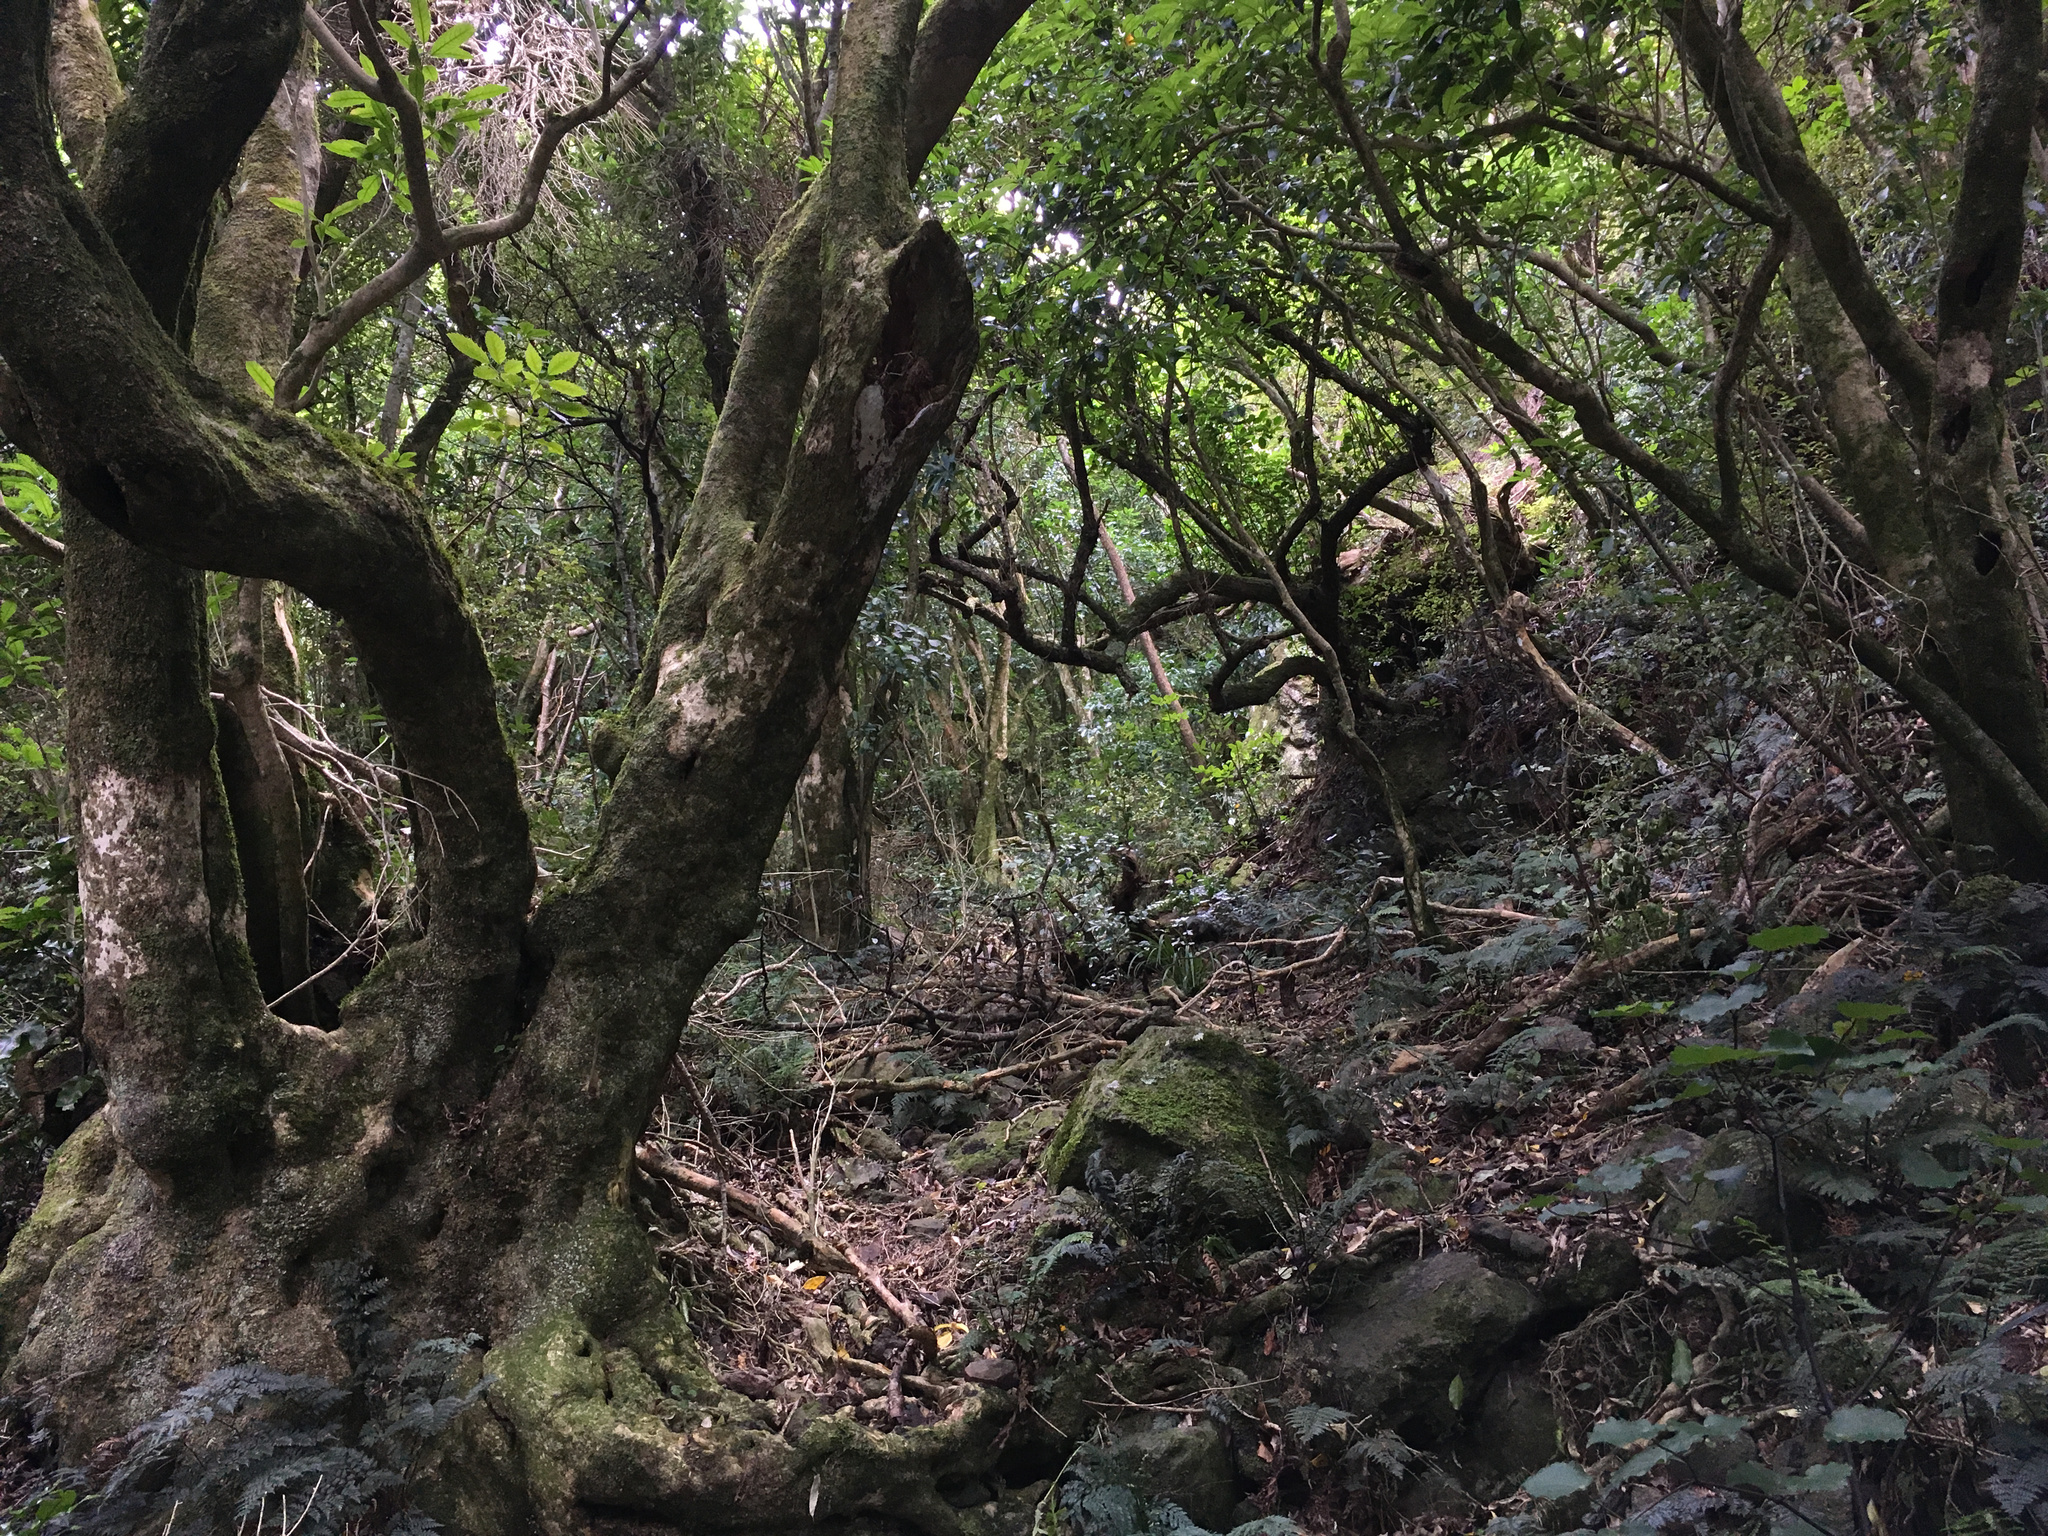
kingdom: Plantae
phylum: Tracheophyta
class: Magnoliopsida
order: Malpighiales
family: Violaceae
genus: Melicytus
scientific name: Melicytus ramiflorus
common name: Mahoe
